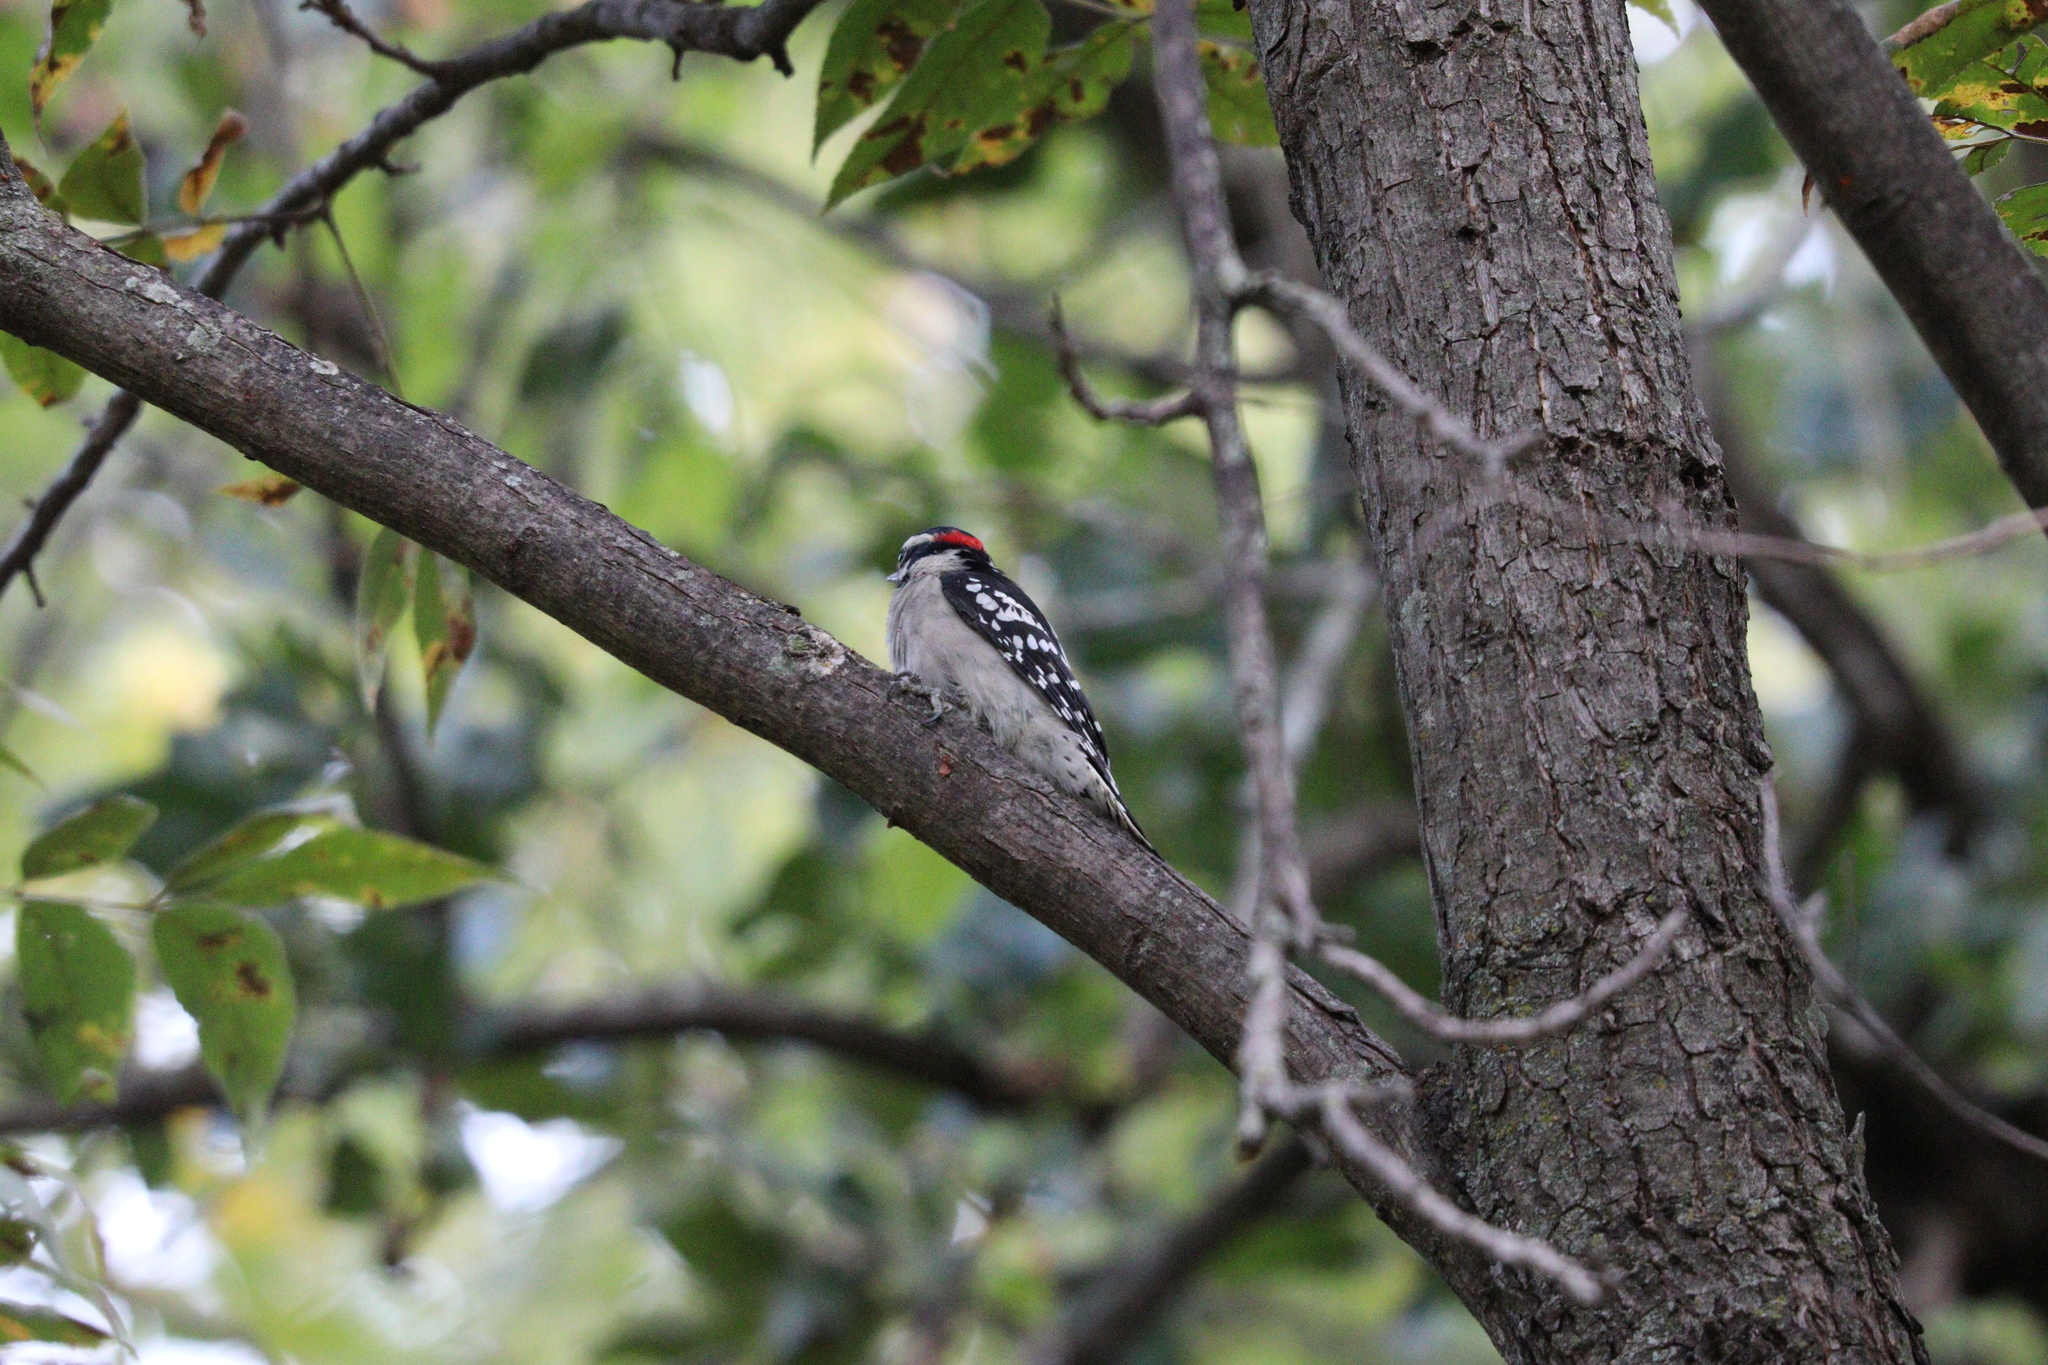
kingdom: Animalia
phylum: Chordata
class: Aves
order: Piciformes
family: Picidae
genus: Dryobates
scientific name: Dryobates pubescens
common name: Downy woodpecker
